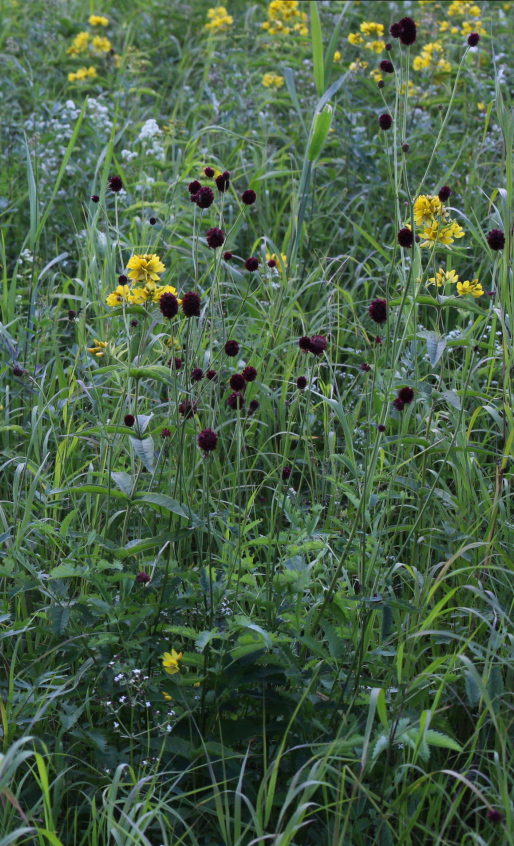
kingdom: Plantae
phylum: Tracheophyta
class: Magnoliopsida
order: Rosales
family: Rosaceae
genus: Sanguisorba
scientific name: Sanguisorba officinalis
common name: Great burnet
